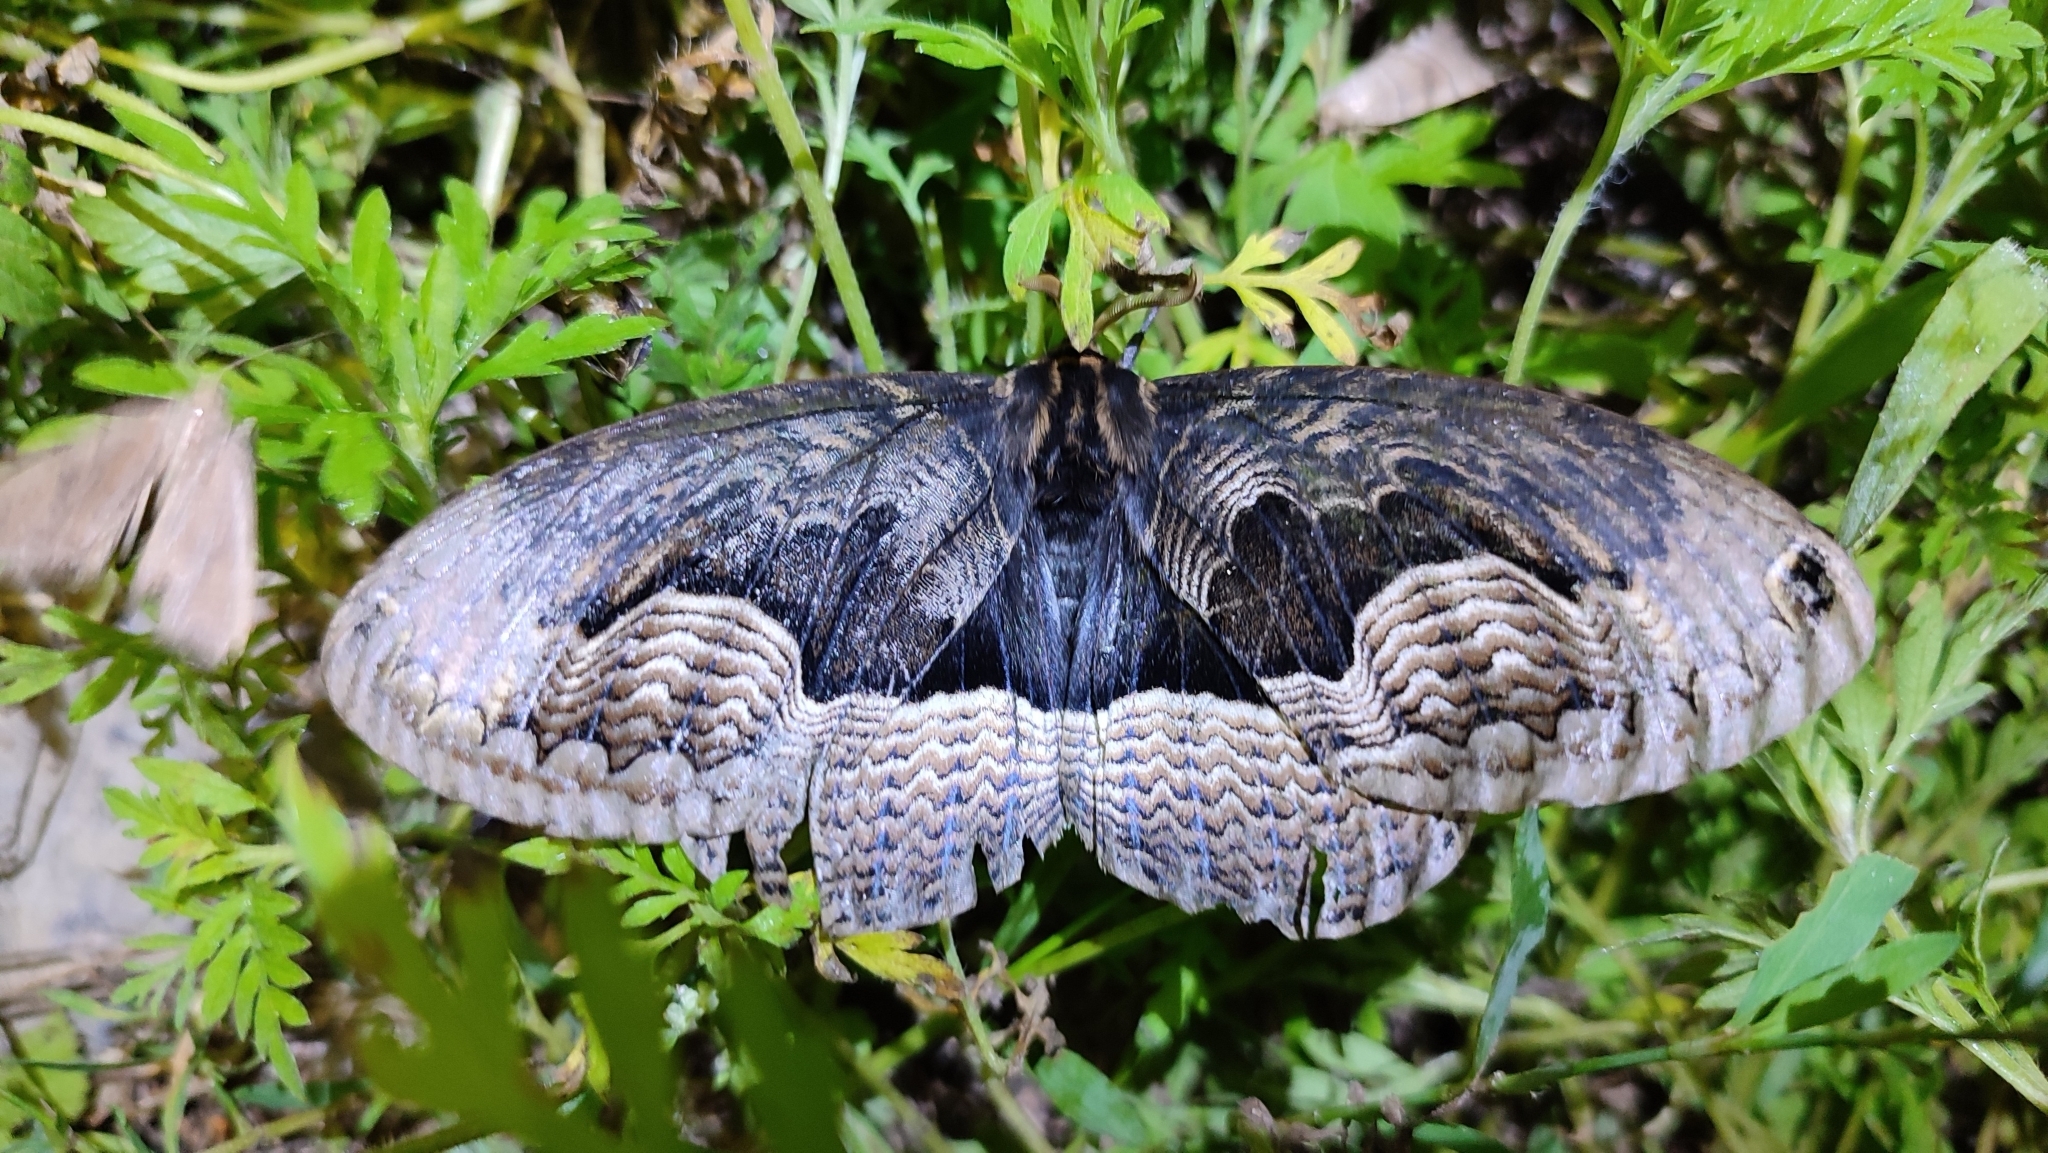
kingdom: Animalia
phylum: Arthropoda
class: Insecta
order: Lepidoptera
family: Brahmaeidae
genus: Brahmaea
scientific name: Brahmaea certhia
